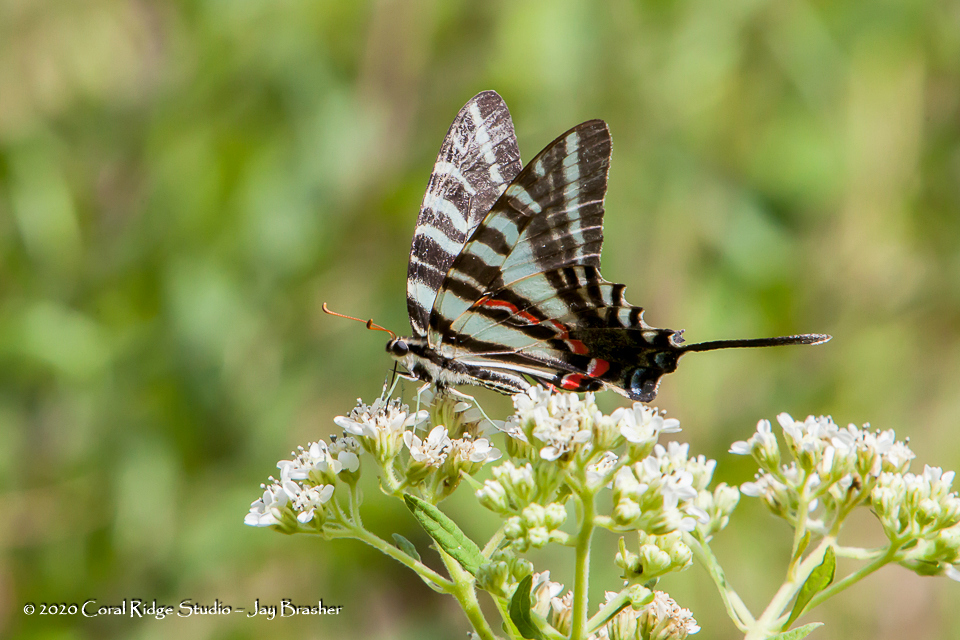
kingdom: Animalia
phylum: Arthropoda
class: Insecta
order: Lepidoptera
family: Papilionidae
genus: Protographium
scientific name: Protographium marcellus
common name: Zebra swallowtail
